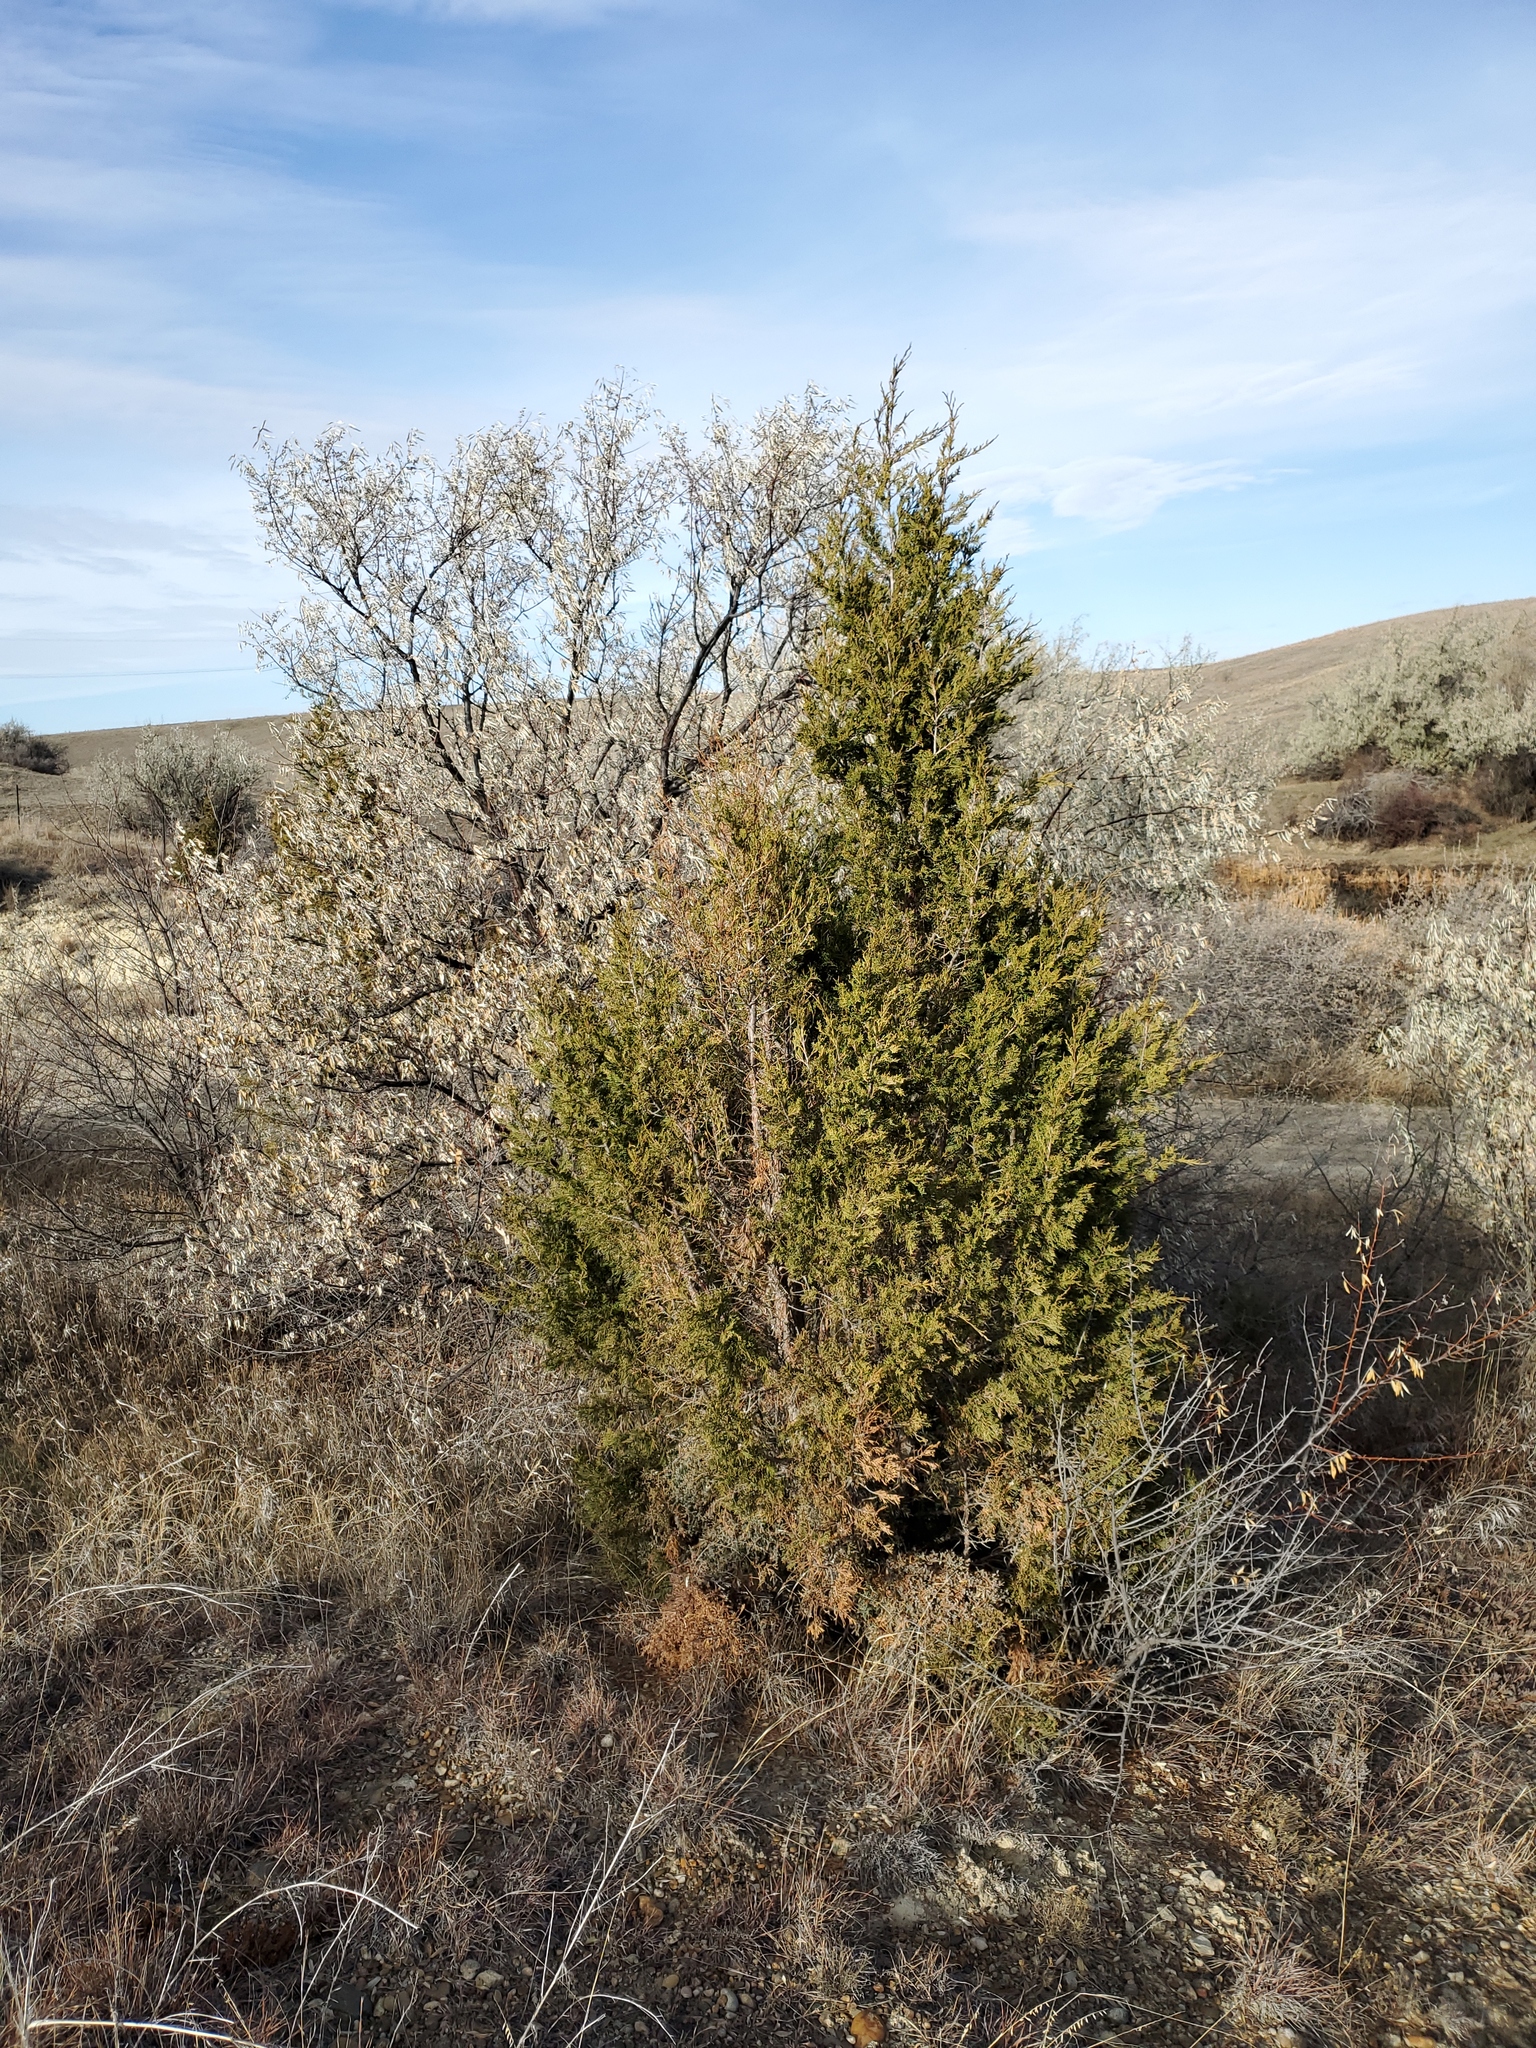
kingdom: Plantae
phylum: Tracheophyta
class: Pinopsida
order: Pinales
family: Cupressaceae
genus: Juniperus
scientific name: Juniperus scopulorum
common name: Rocky mountain juniper
